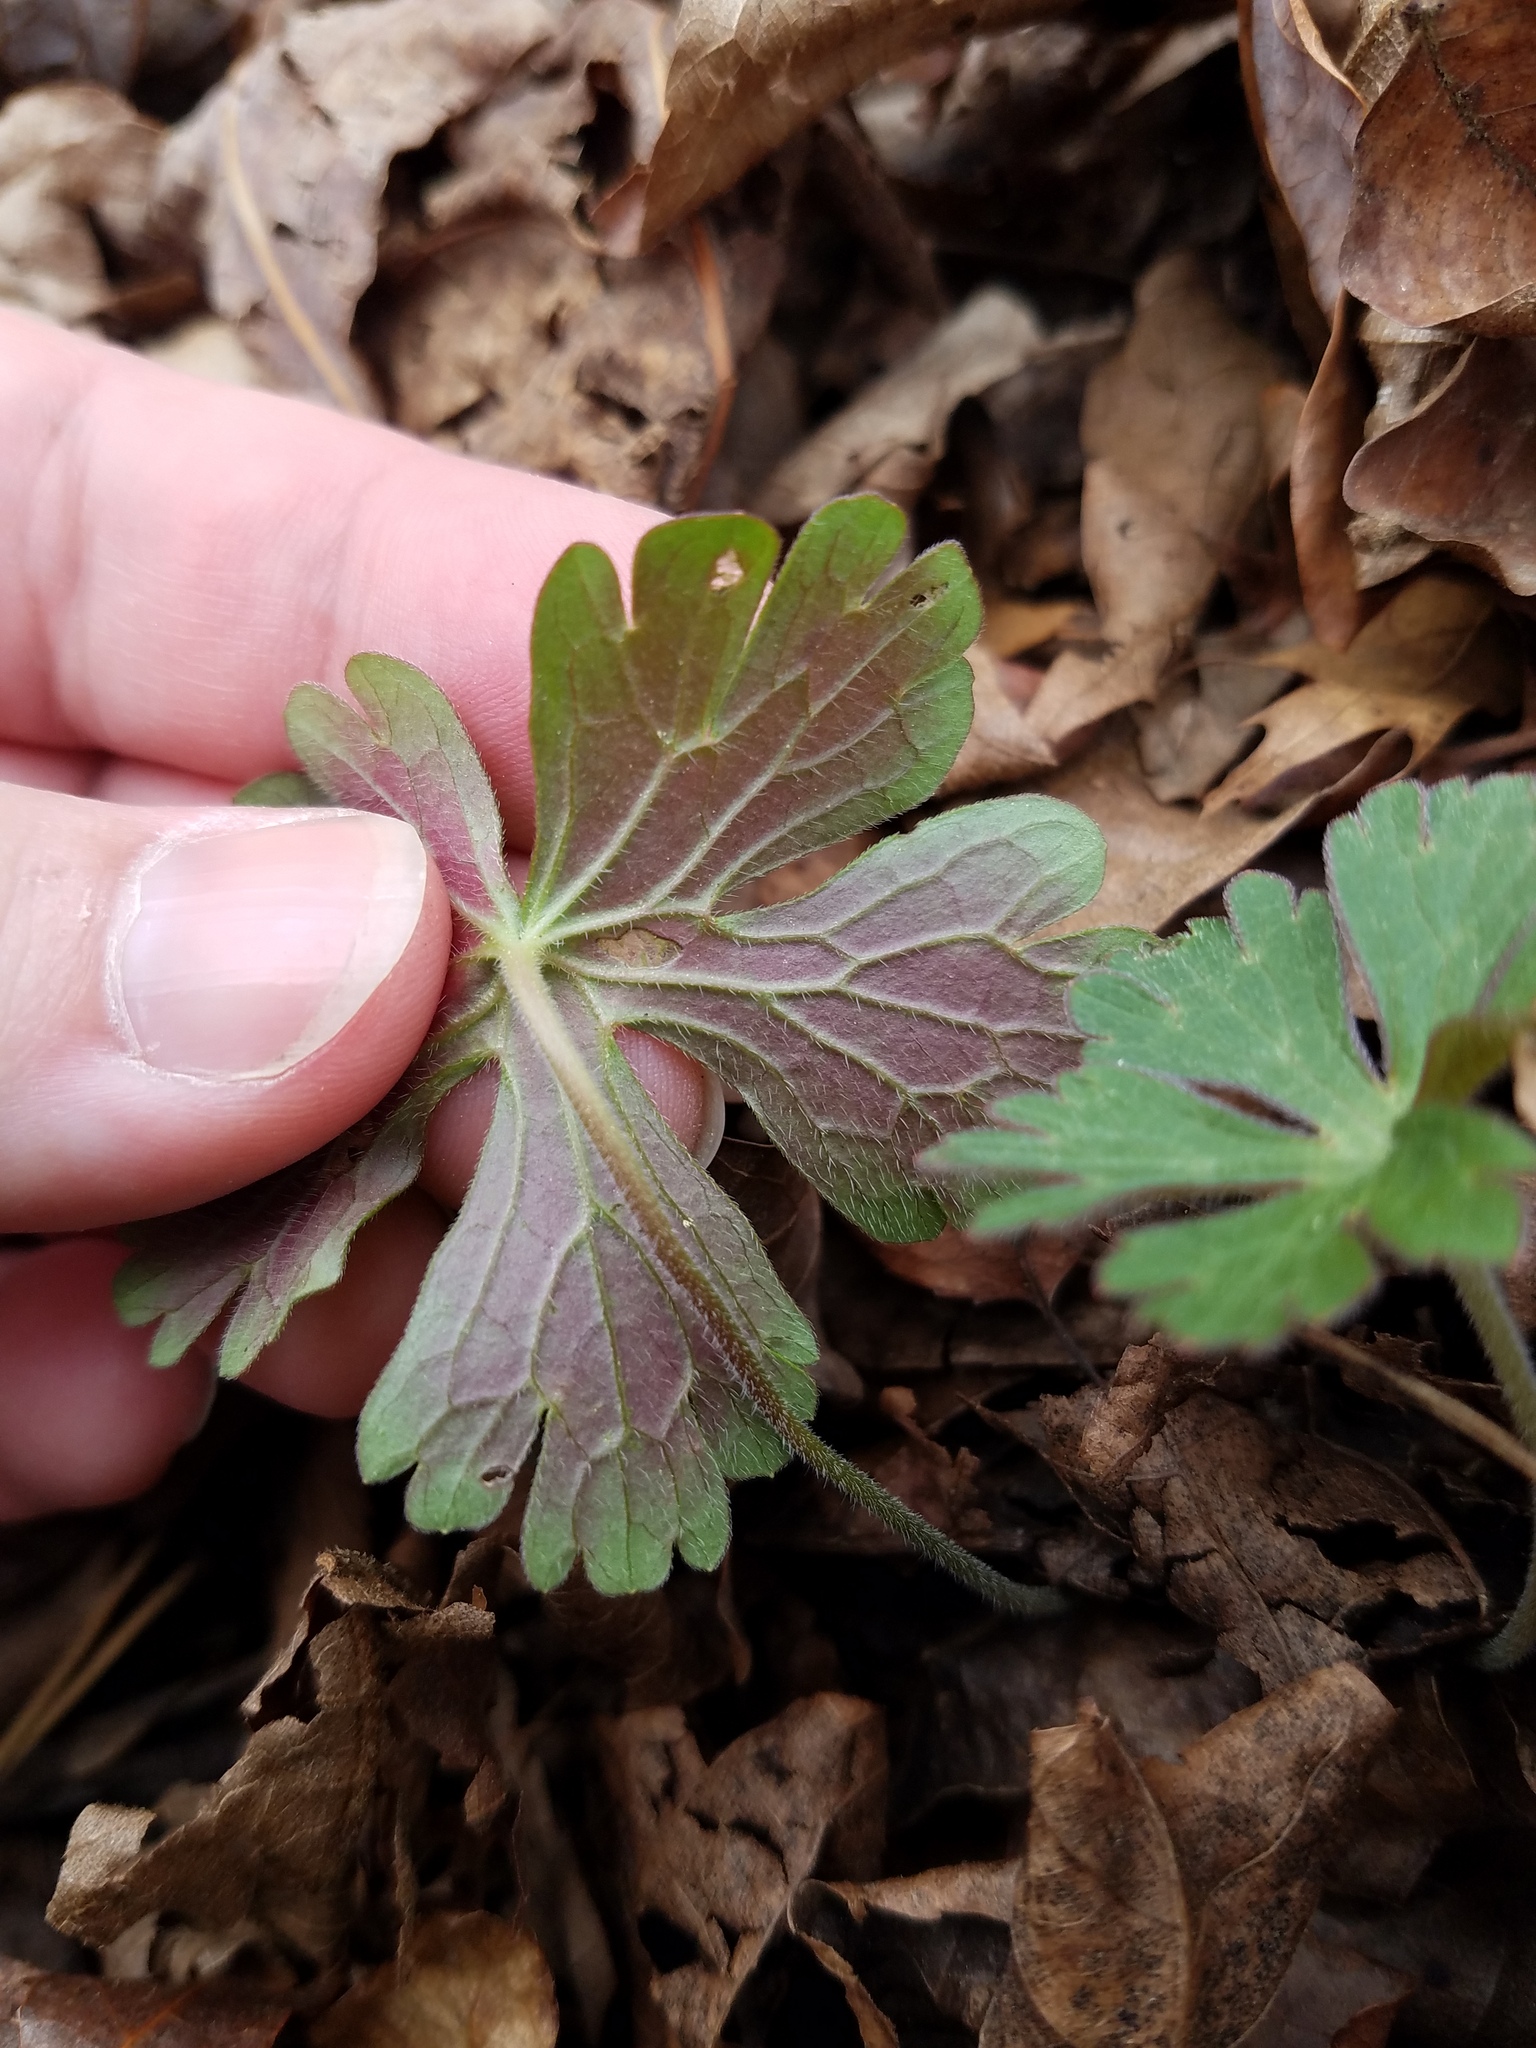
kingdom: Plantae
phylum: Tracheophyta
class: Magnoliopsida
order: Geraniales
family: Geraniaceae
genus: Geranium
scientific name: Geranium maculatum
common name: Spotted geranium
